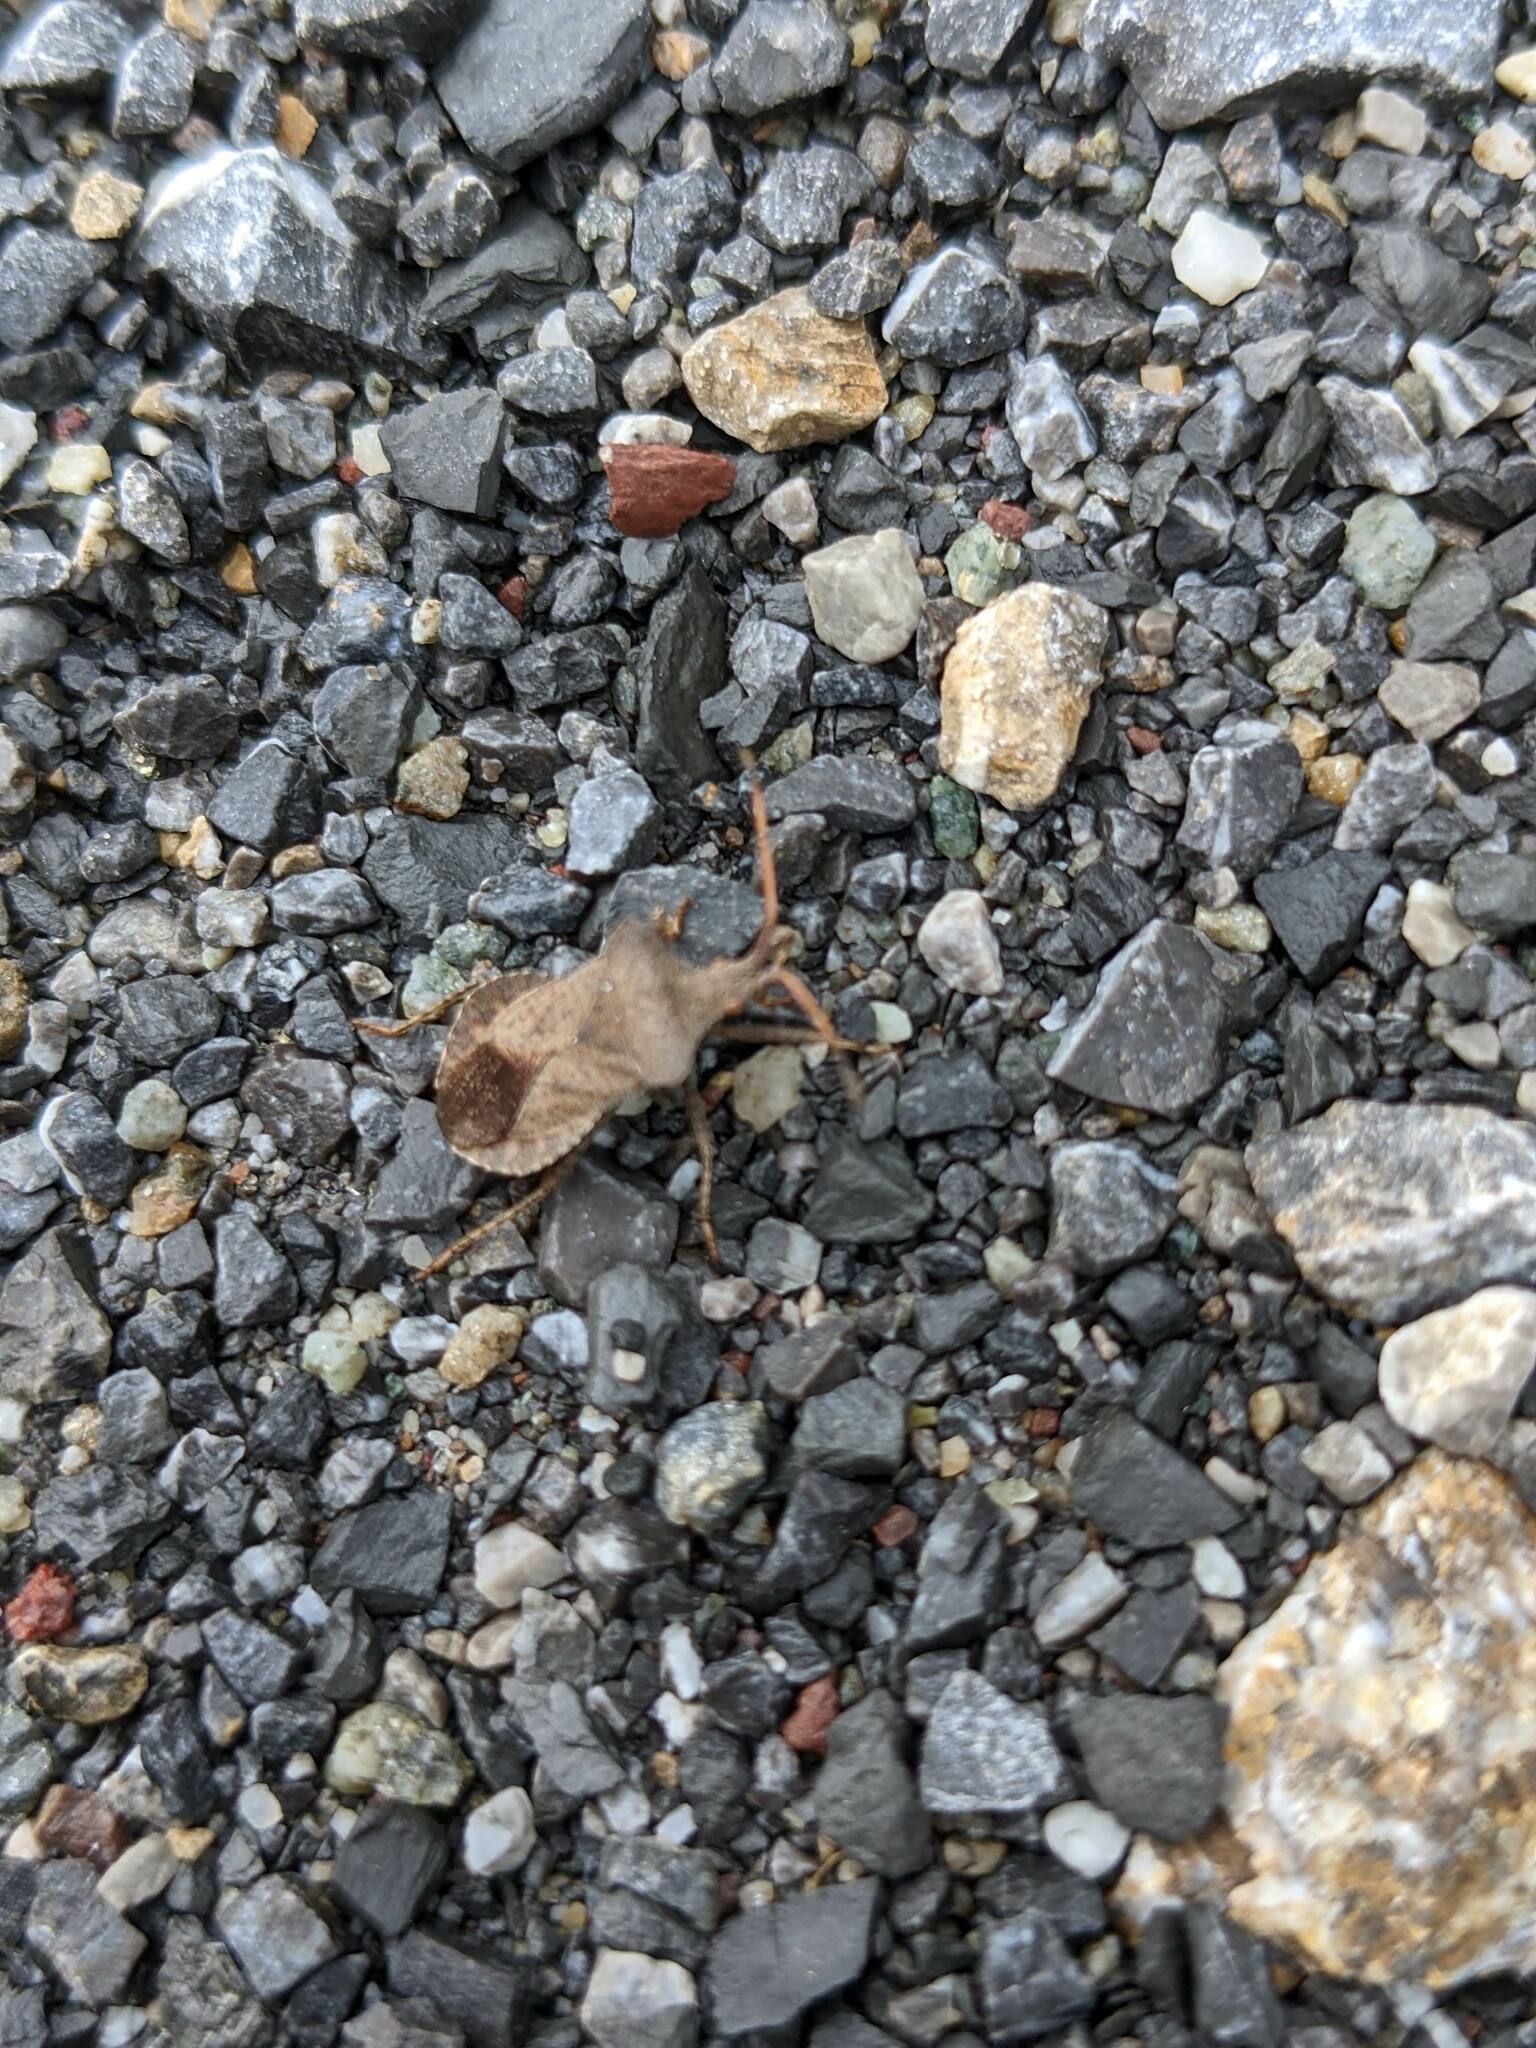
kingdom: Animalia
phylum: Arthropoda
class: Insecta
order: Hemiptera
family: Coreidae
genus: Coreus
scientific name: Coreus marginatus
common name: Dock bug
